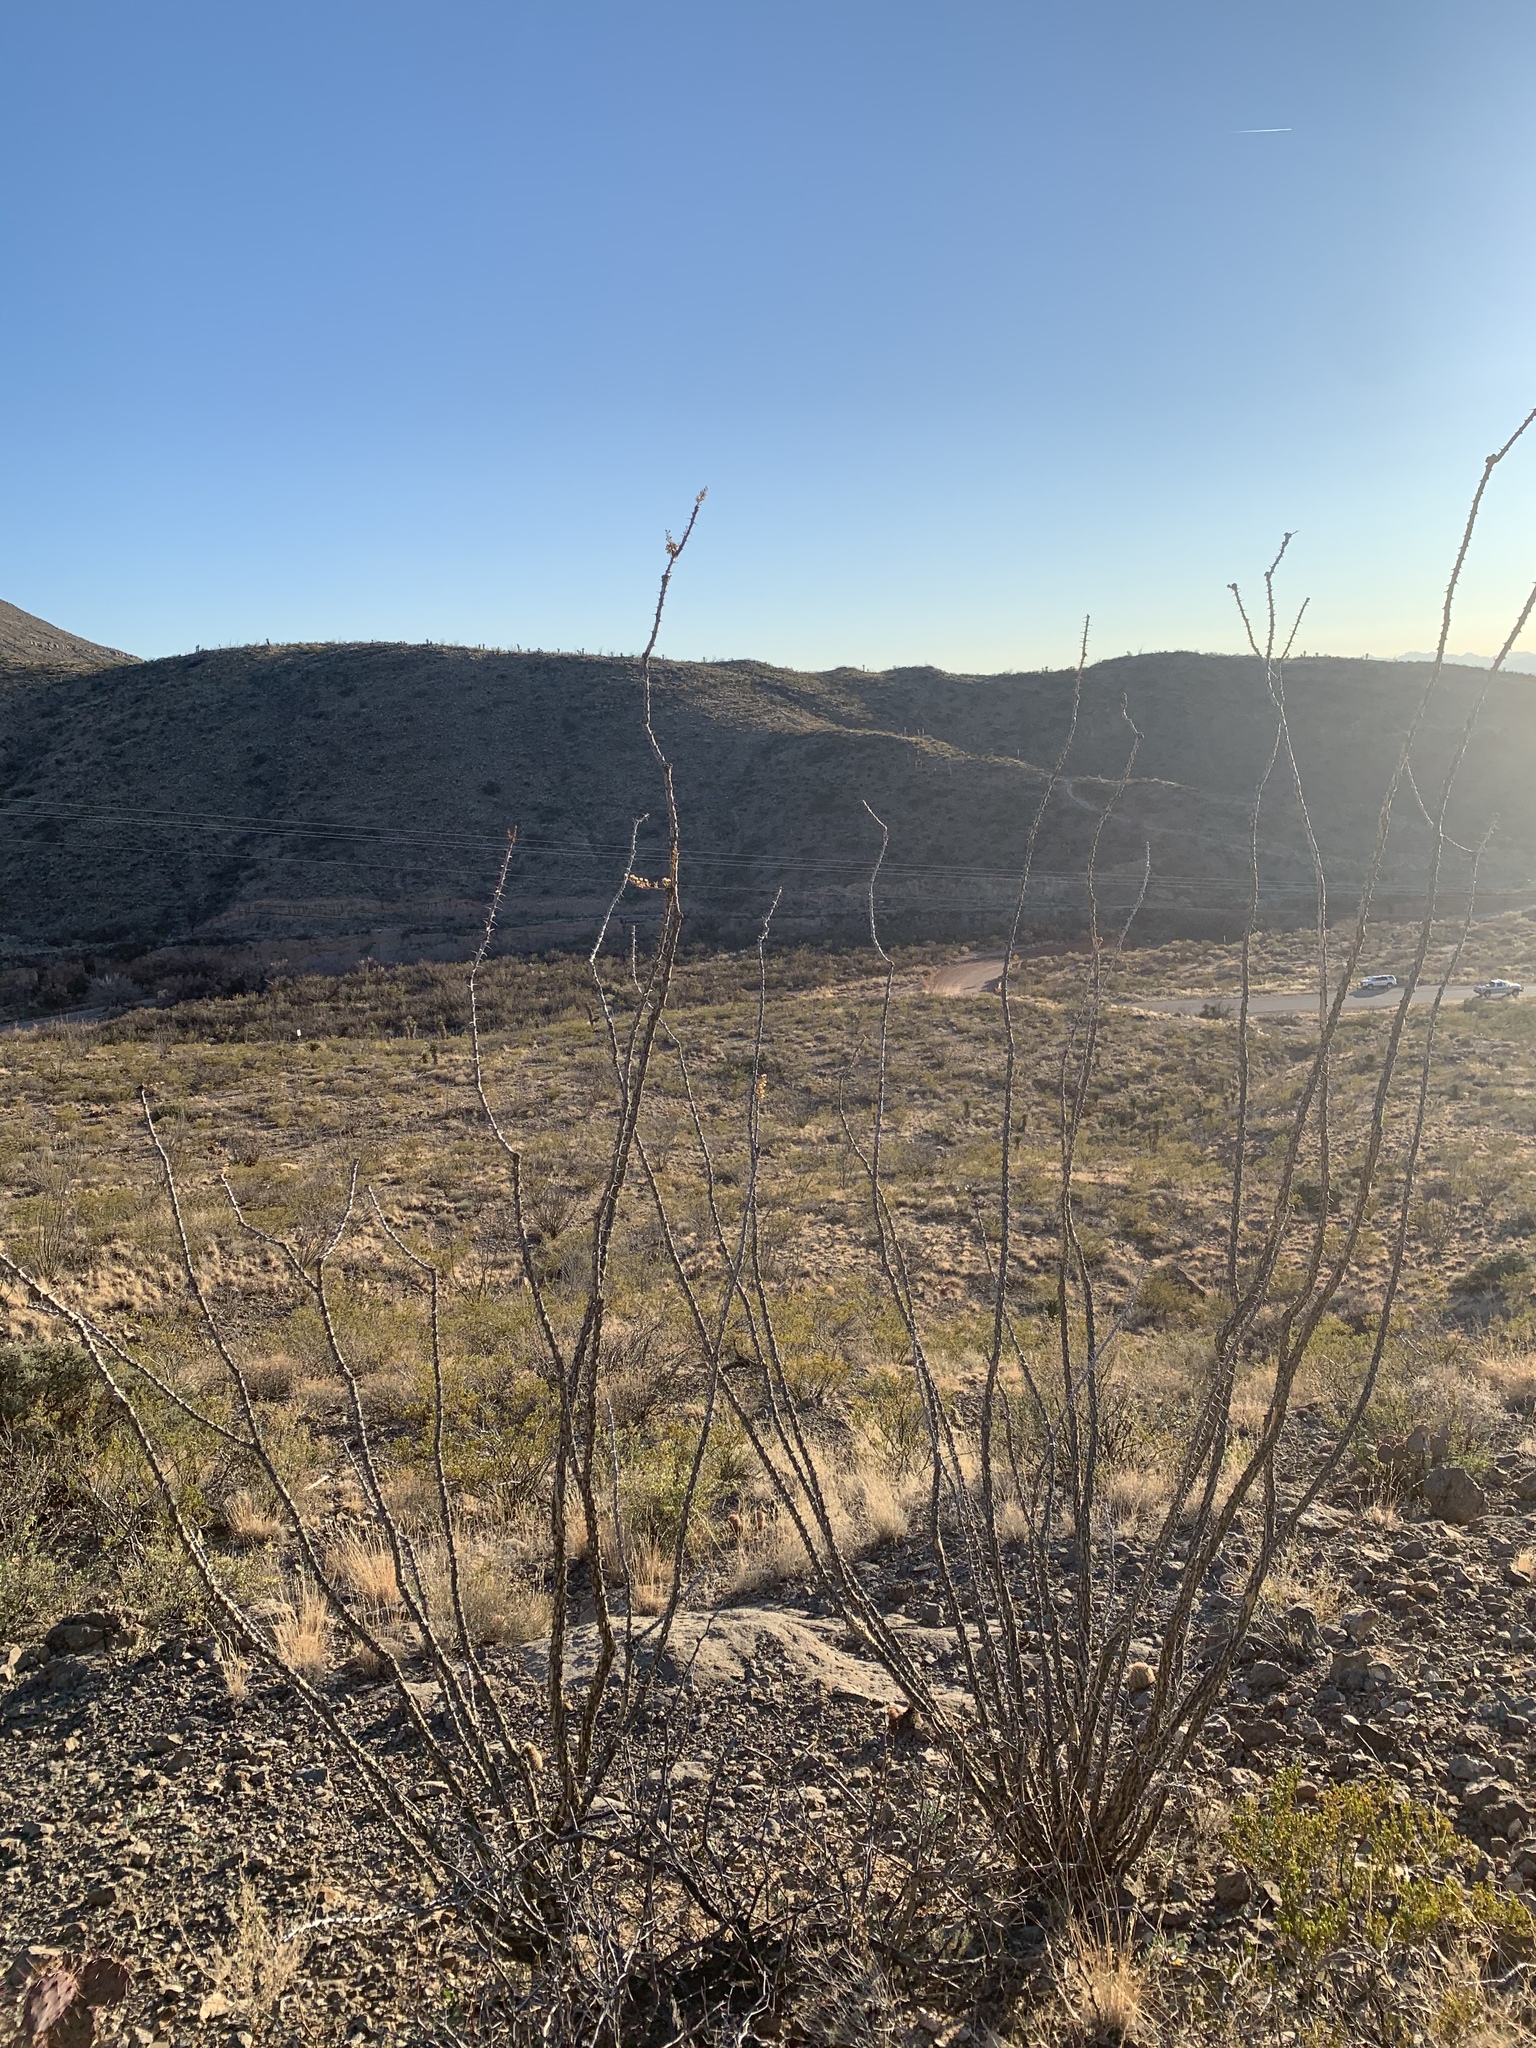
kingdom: Plantae
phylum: Tracheophyta
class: Magnoliopsida
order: Ericales
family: Fouquieriaceae
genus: Fouquieria
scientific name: Fouquieria splendens
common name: Vine-cactus
